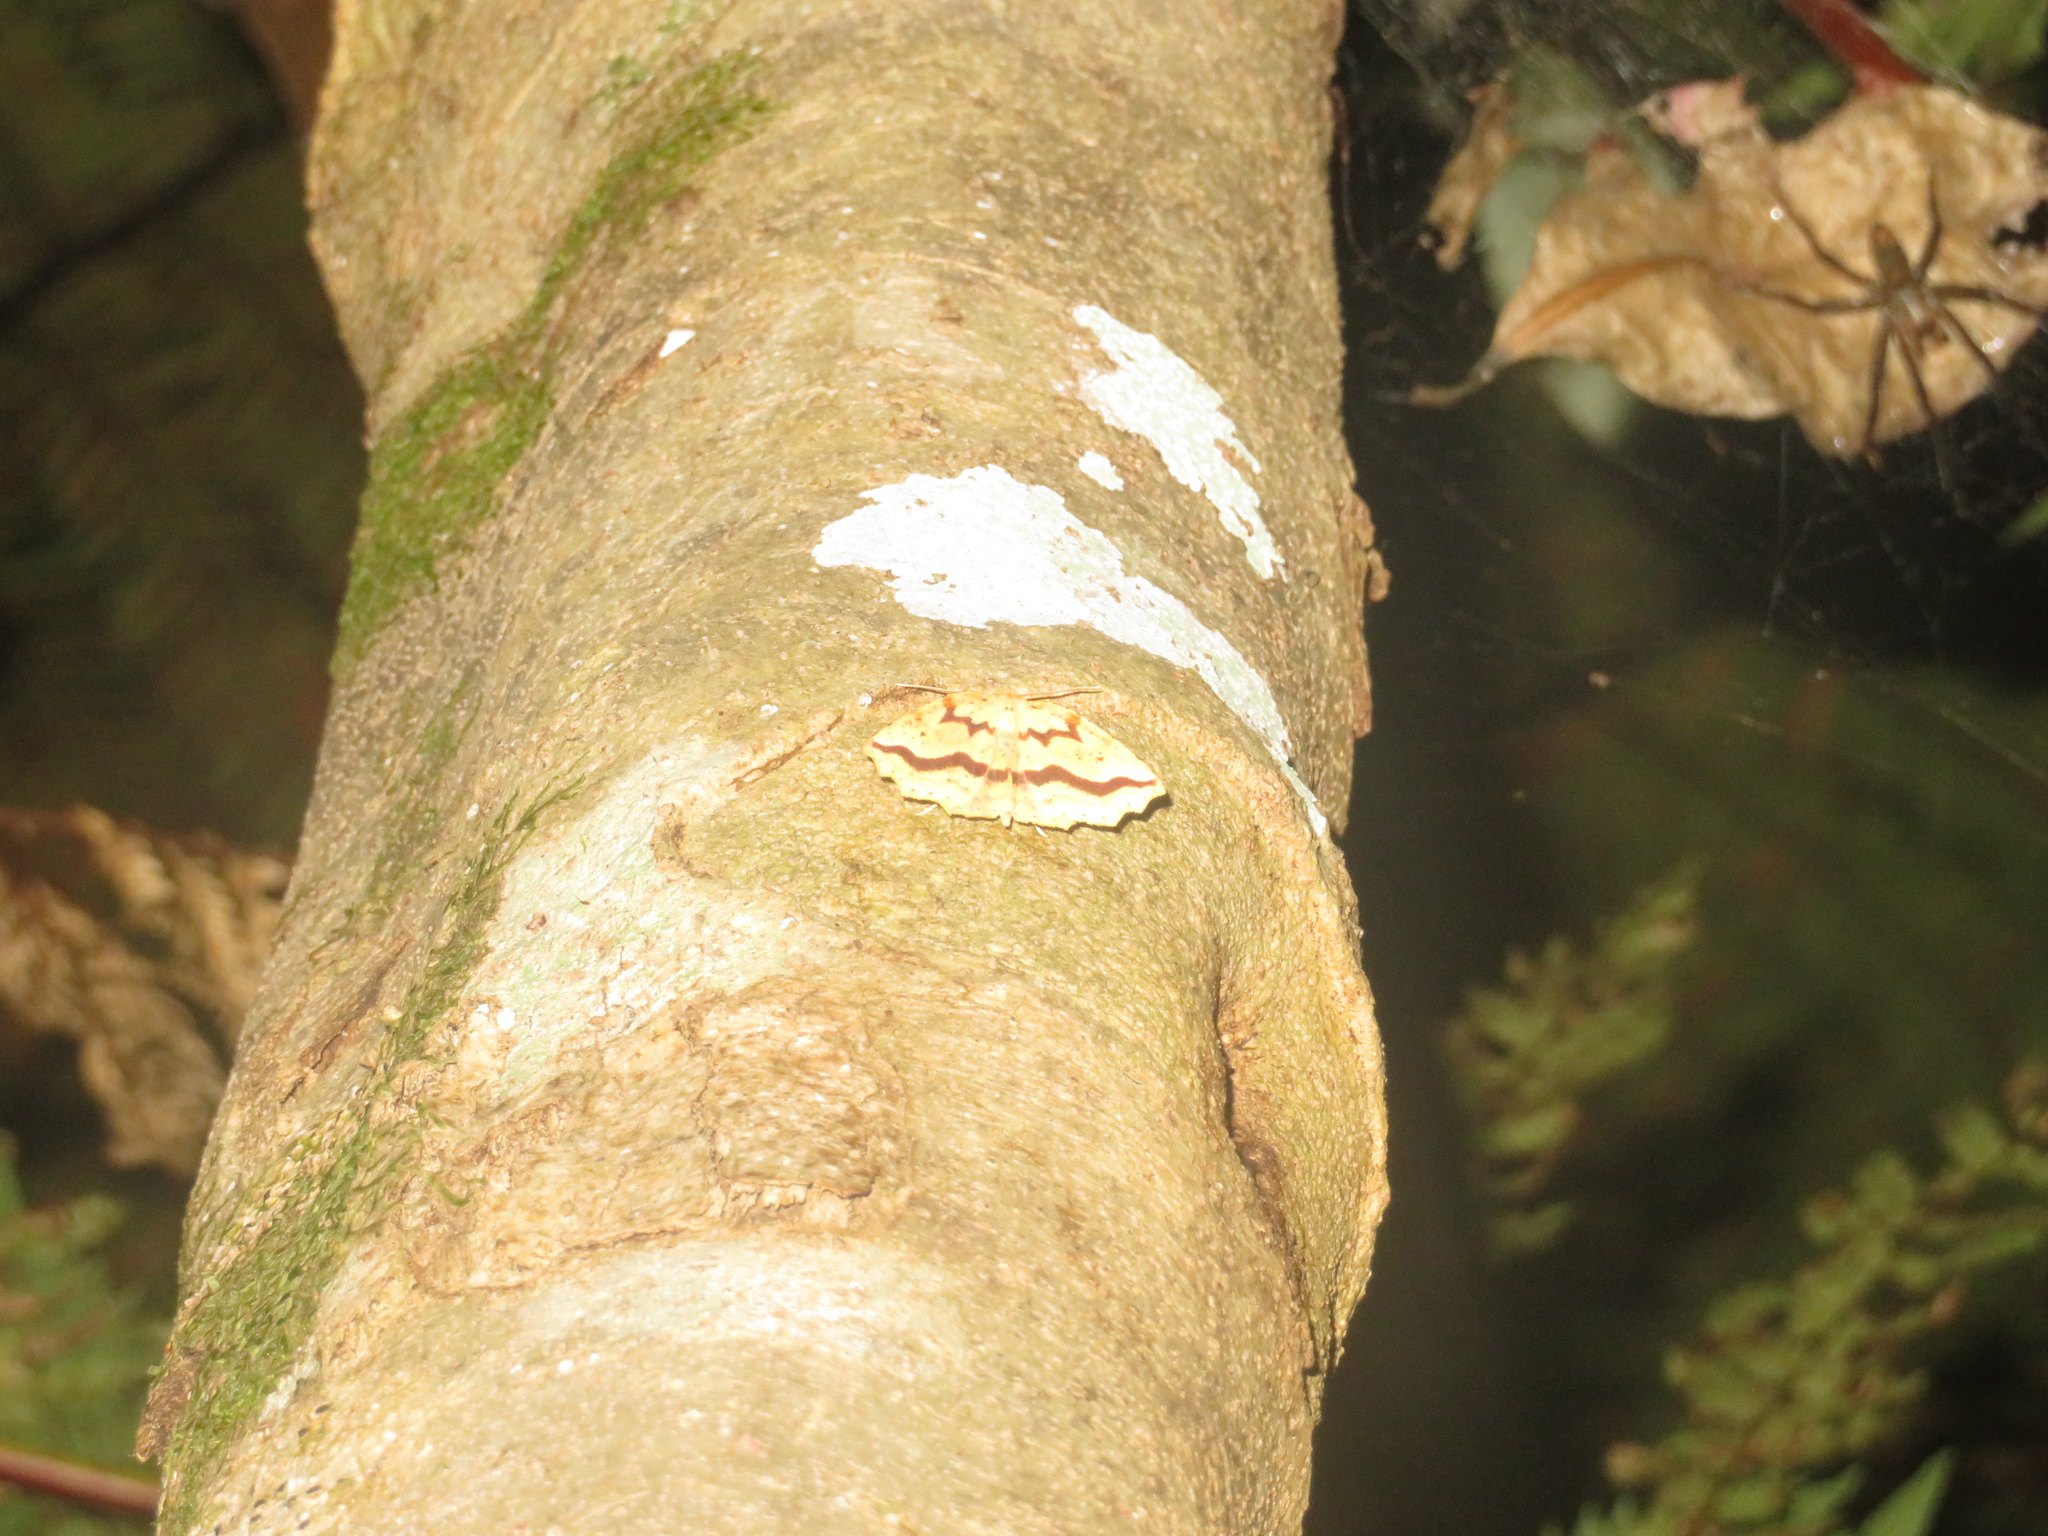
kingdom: Animalia
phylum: Arthropoda
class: Insecta
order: Lepidoptera
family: Geometridae
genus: Ischalis
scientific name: Ischalis variabilis
